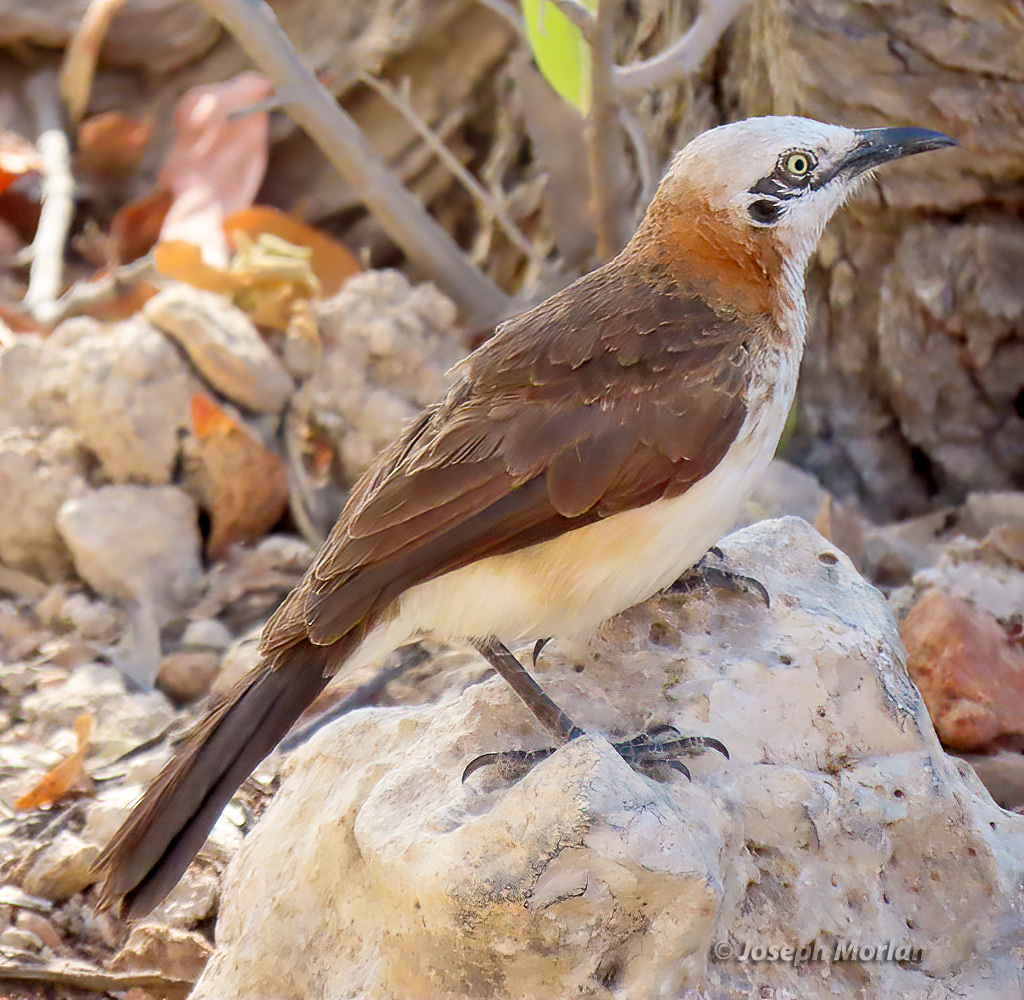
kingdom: Animalia
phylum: Chordata
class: Aves
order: Passeriformes
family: Leiothrichidae
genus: Turdoides
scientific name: Turdoides gymnogenys
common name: Bare-cheeked babbler
